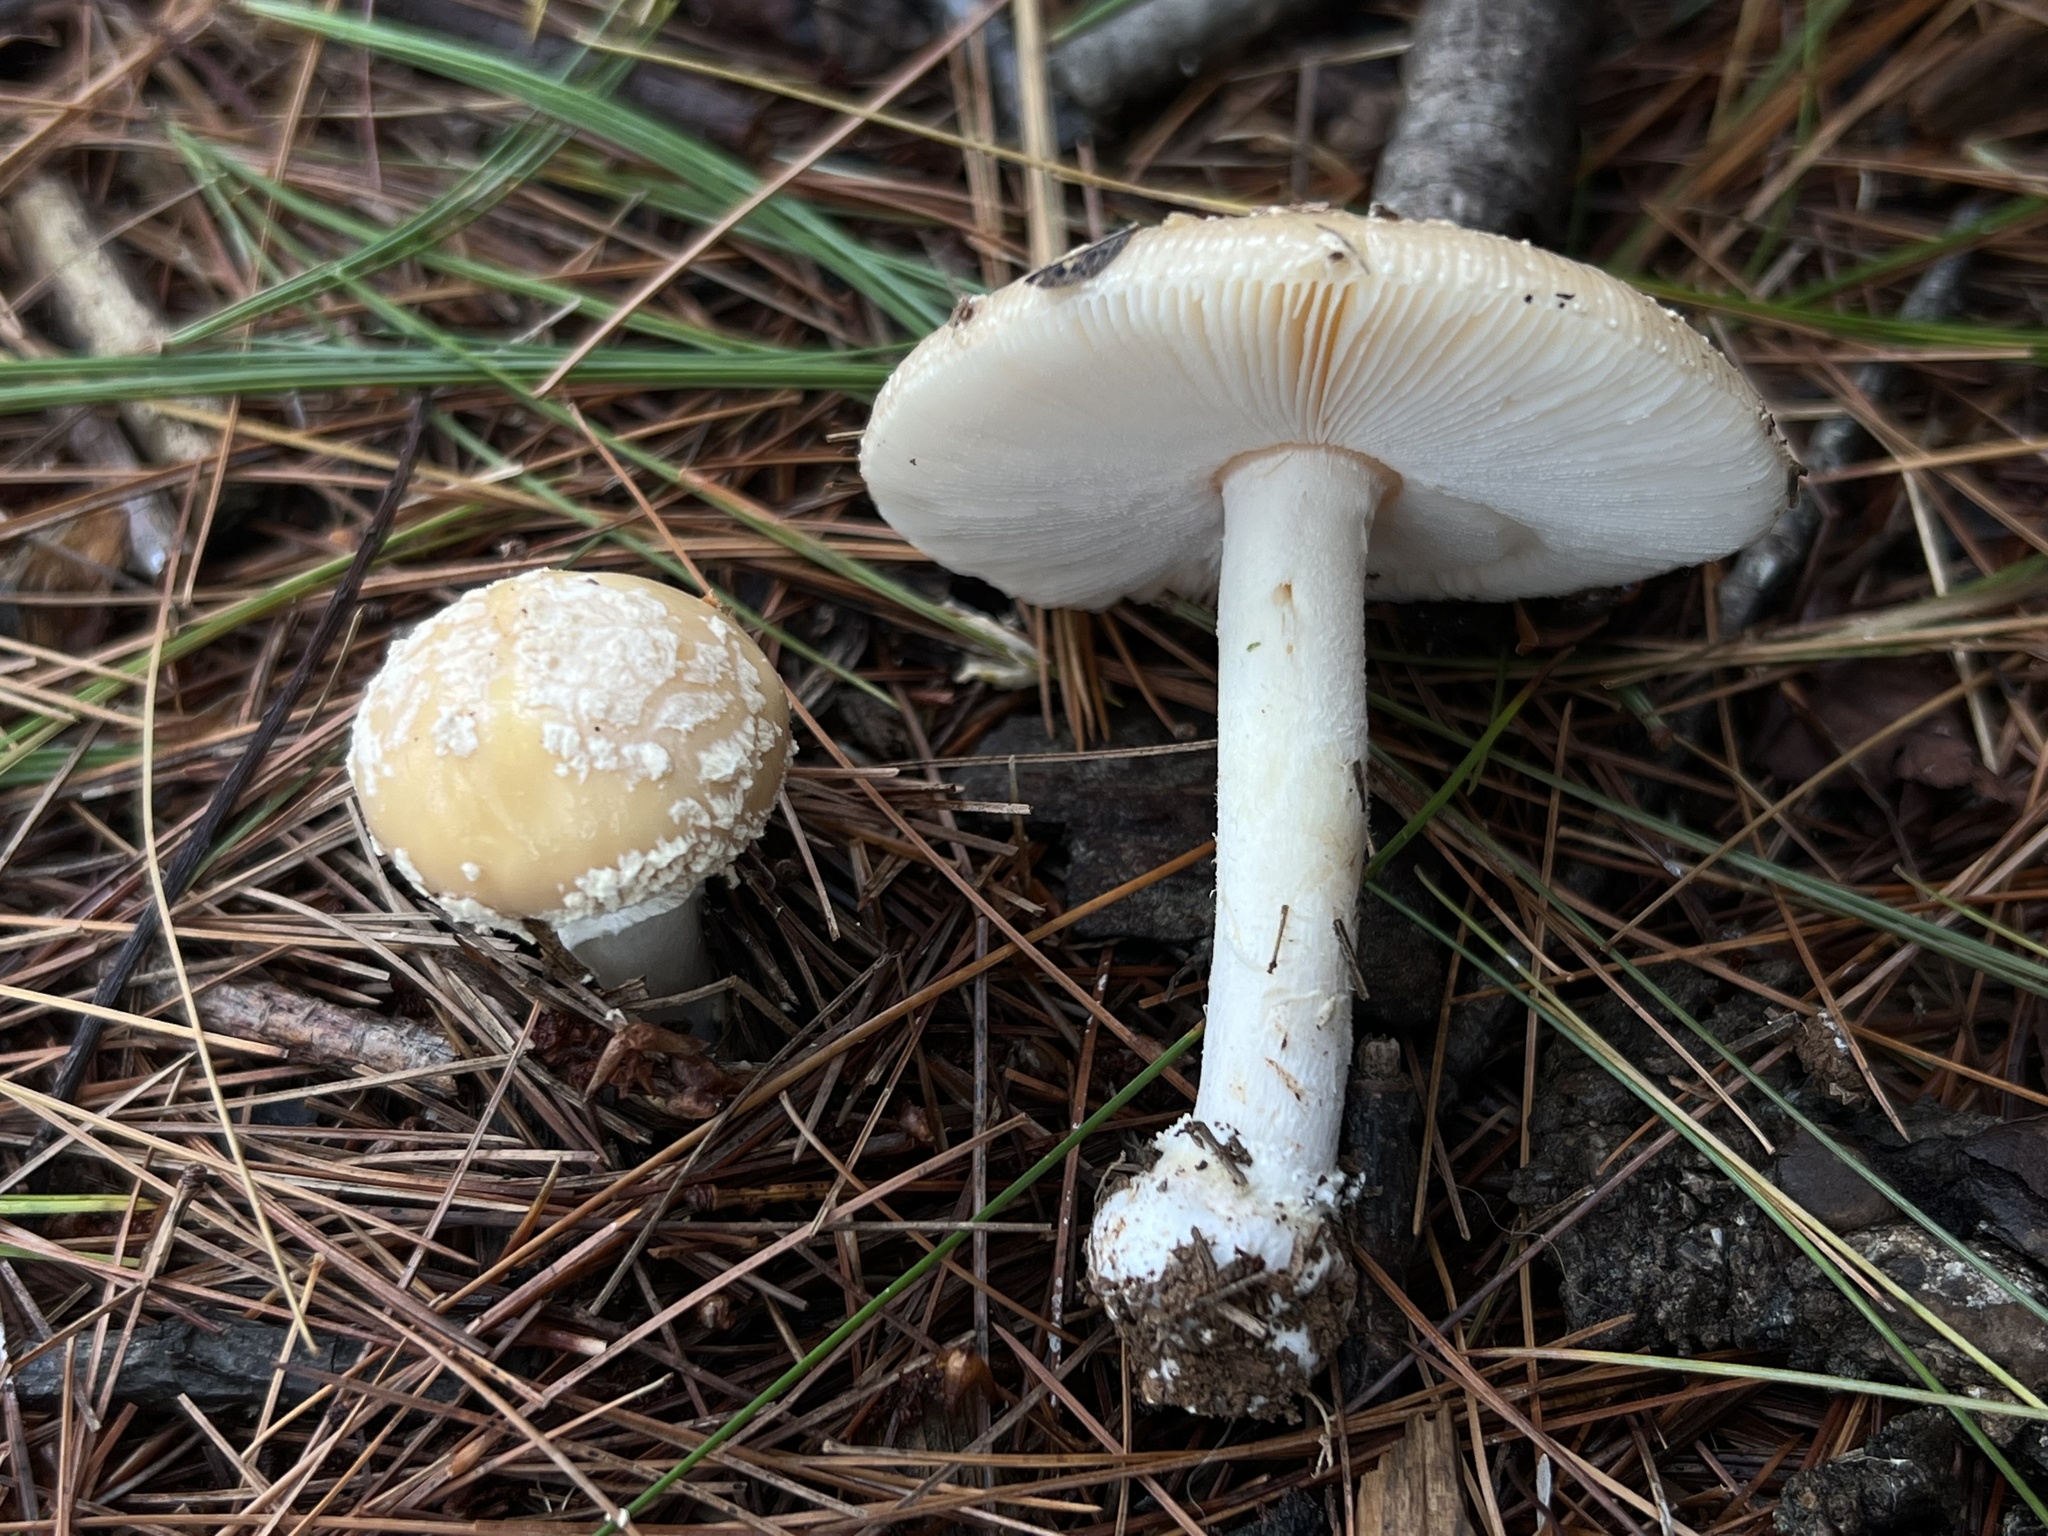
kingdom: Fungi
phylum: Basidiomycota
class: Agaricomycetes
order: Agaricales
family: Amanitaceae
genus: Amanita
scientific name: Amanita crenulata
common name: Poison champagne amanita
